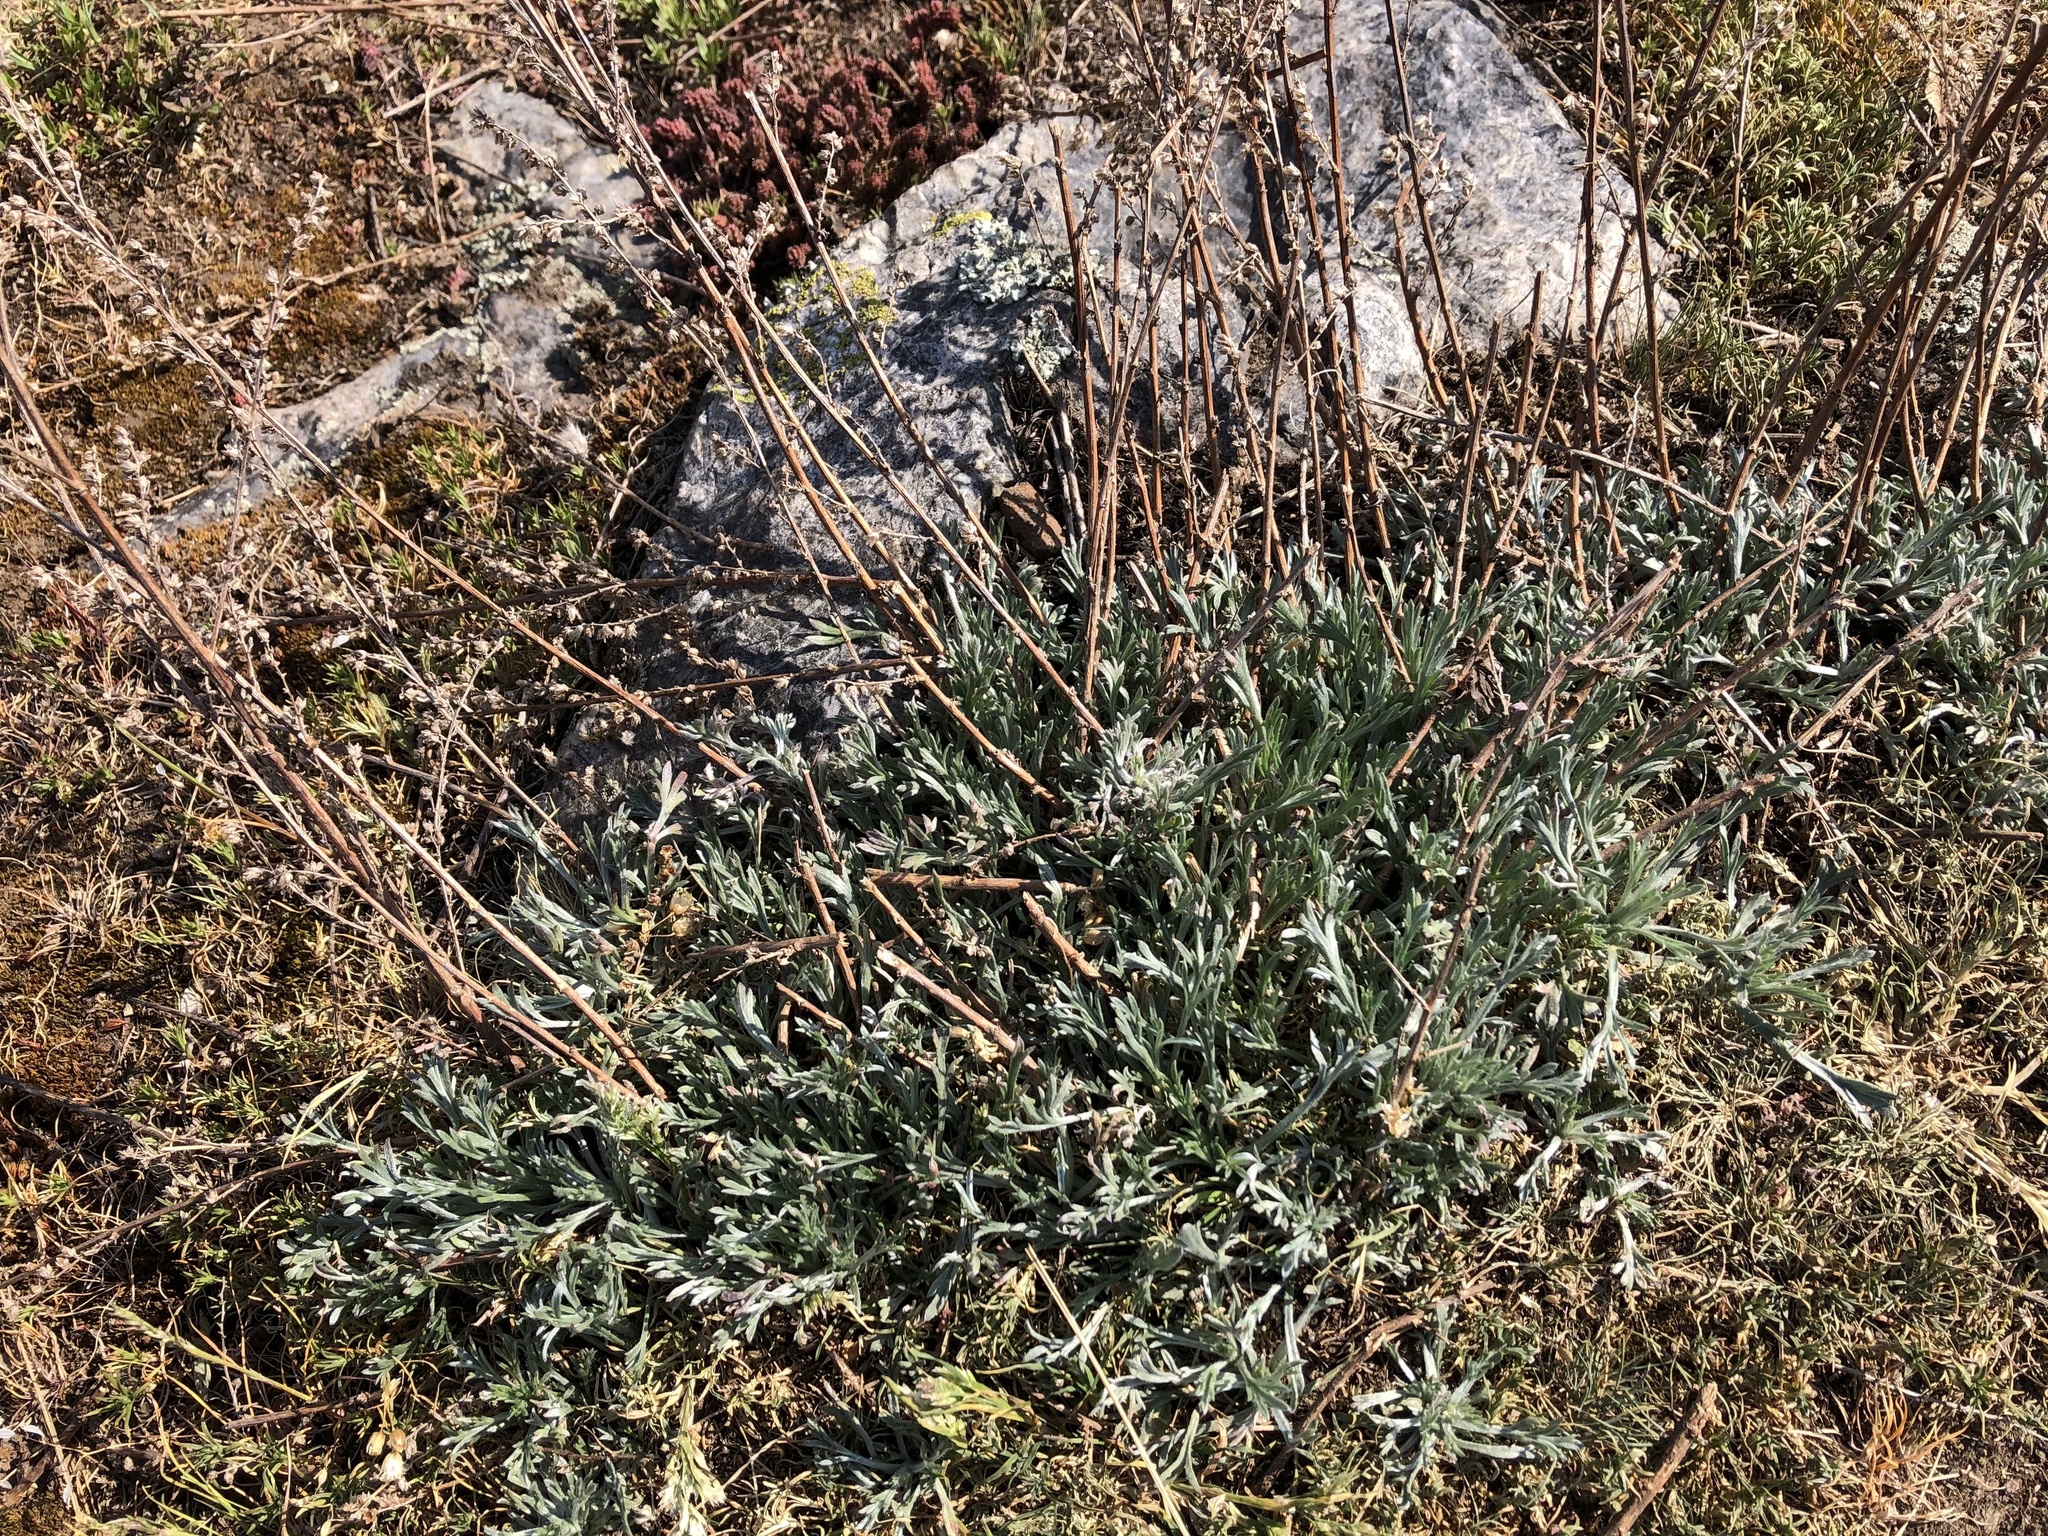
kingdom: Plantae
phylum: Tracheophyta
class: Magnoliopsida
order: Asterales
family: Asteraceae
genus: Artemisia
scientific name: Artemisia campestris
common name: Field wormwood
